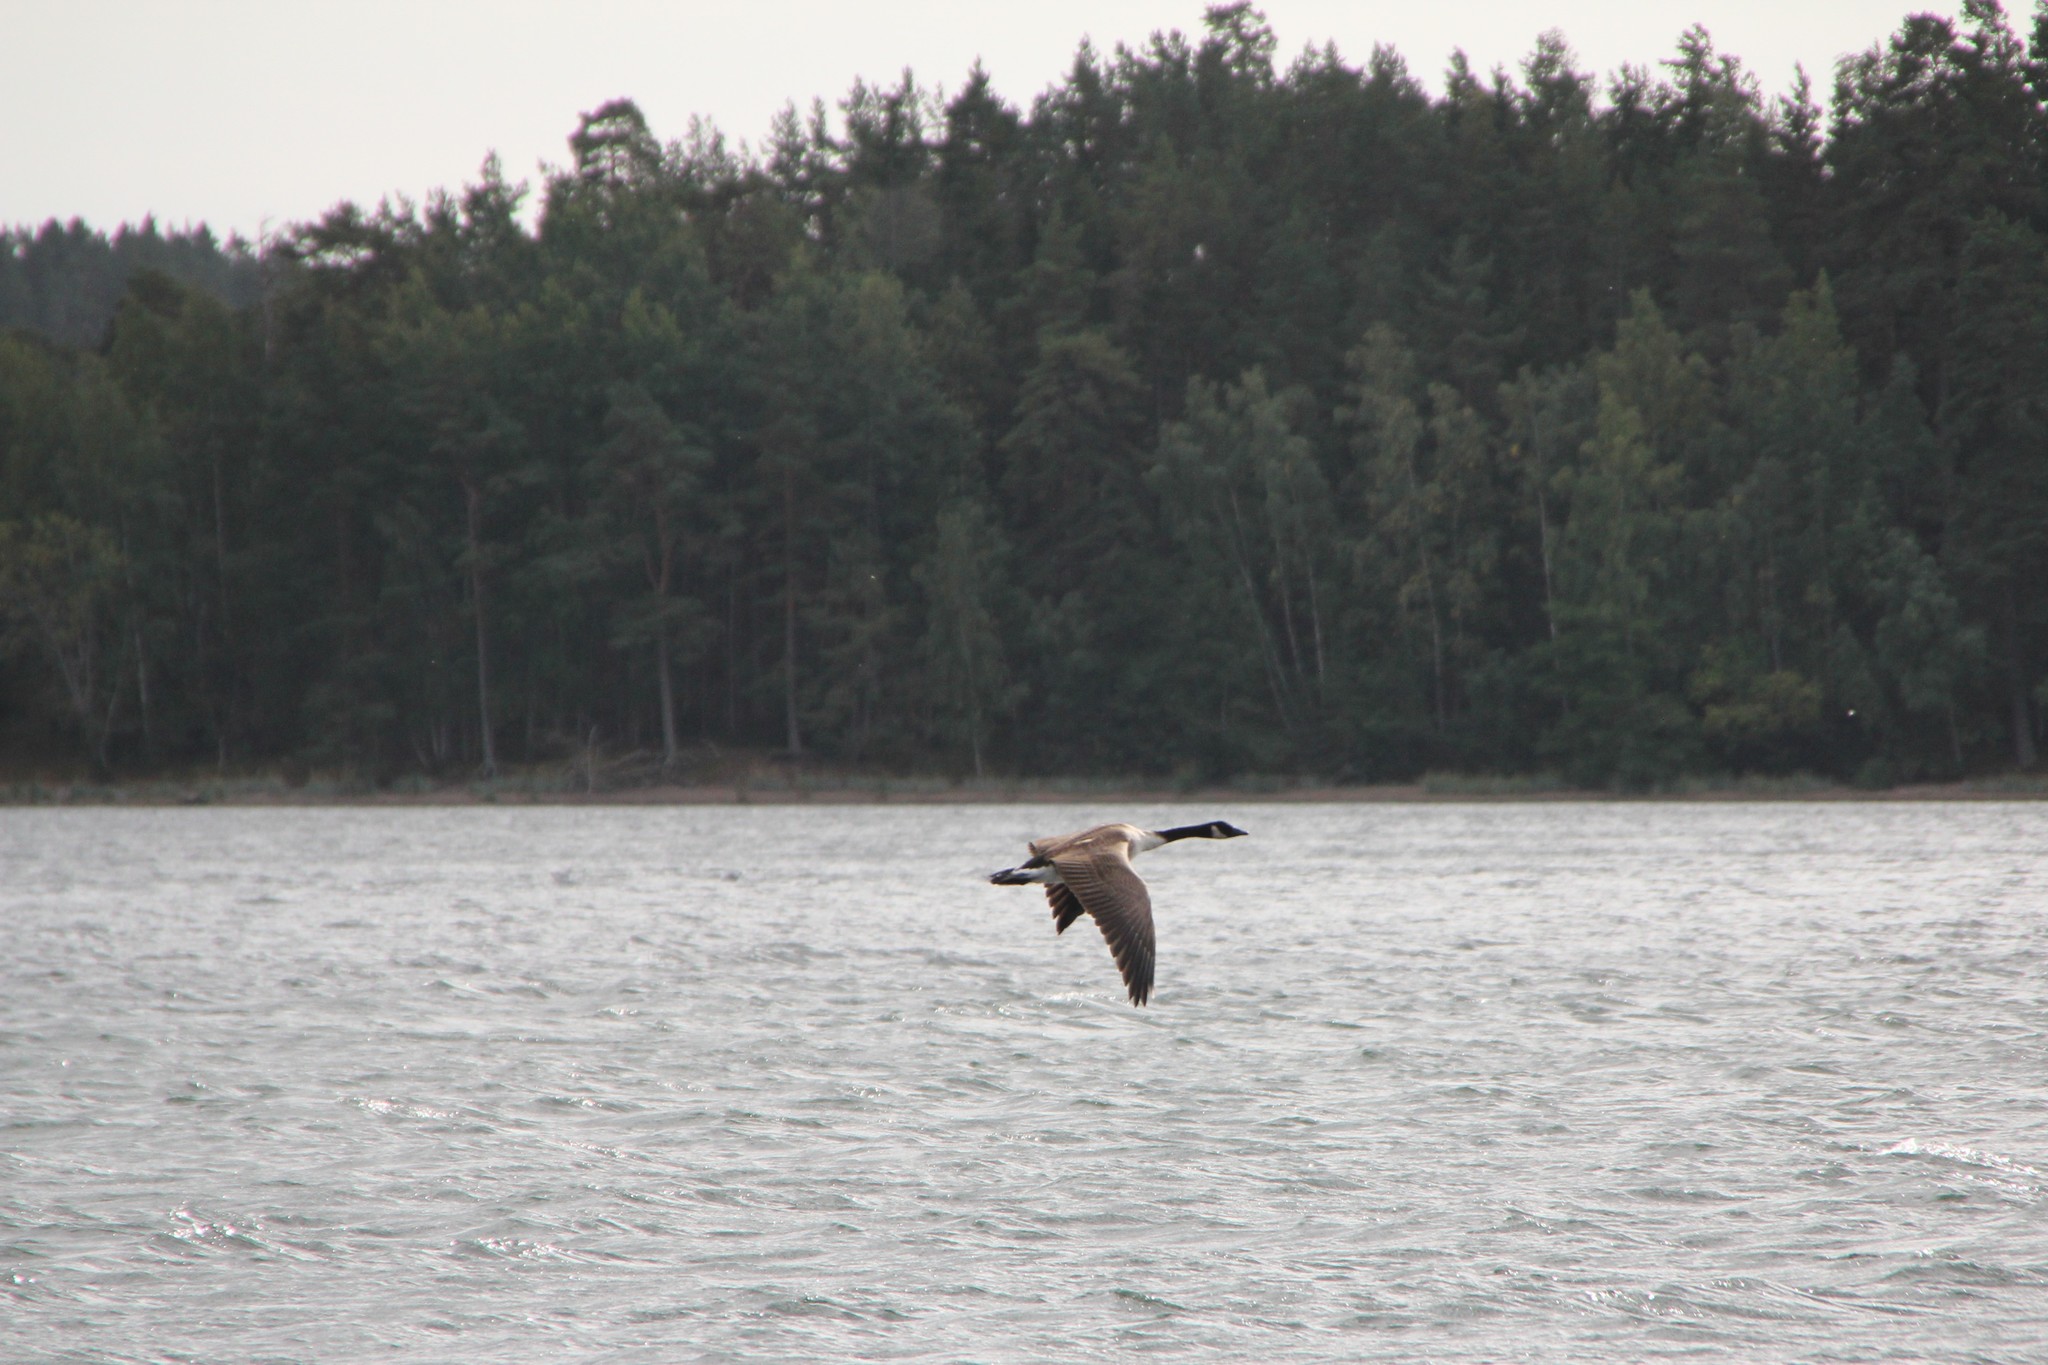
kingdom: Animalia
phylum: Chordata
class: Aves
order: Anseriformes
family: Anatidae
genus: Branta
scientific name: Branta canadensis
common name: Canada goose
